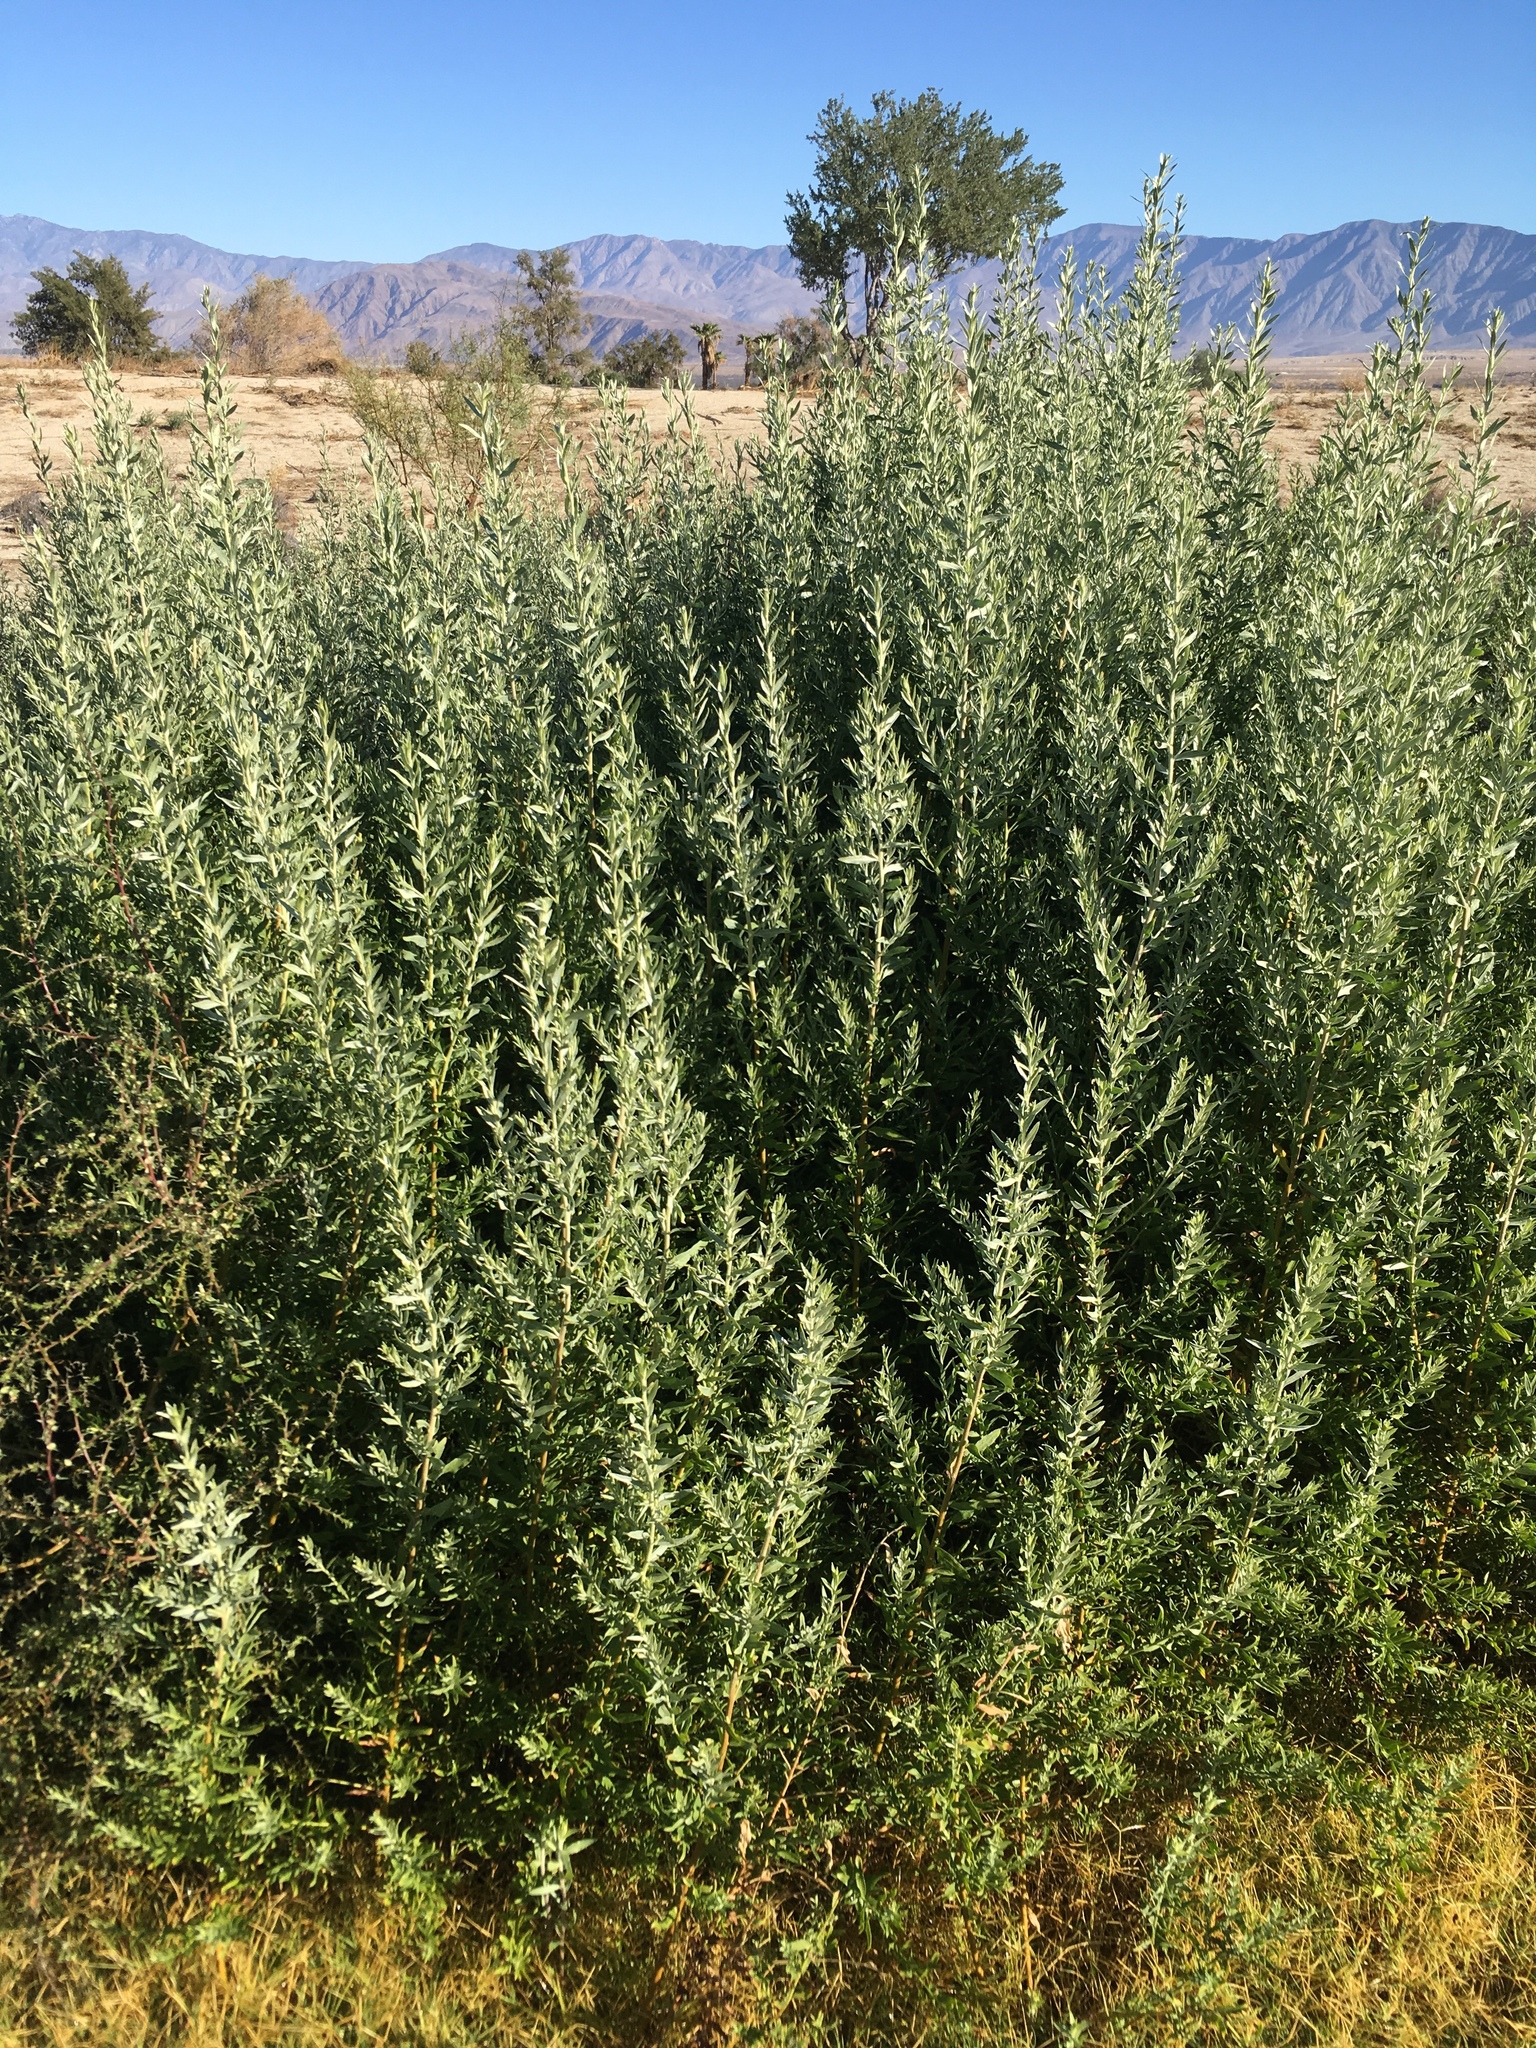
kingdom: Plantae
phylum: Tracheophyta
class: Magnoliopsida
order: Asterales
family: Asteraceae
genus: Pluchea
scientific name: Pluchea sericea
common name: Arrow-weed
